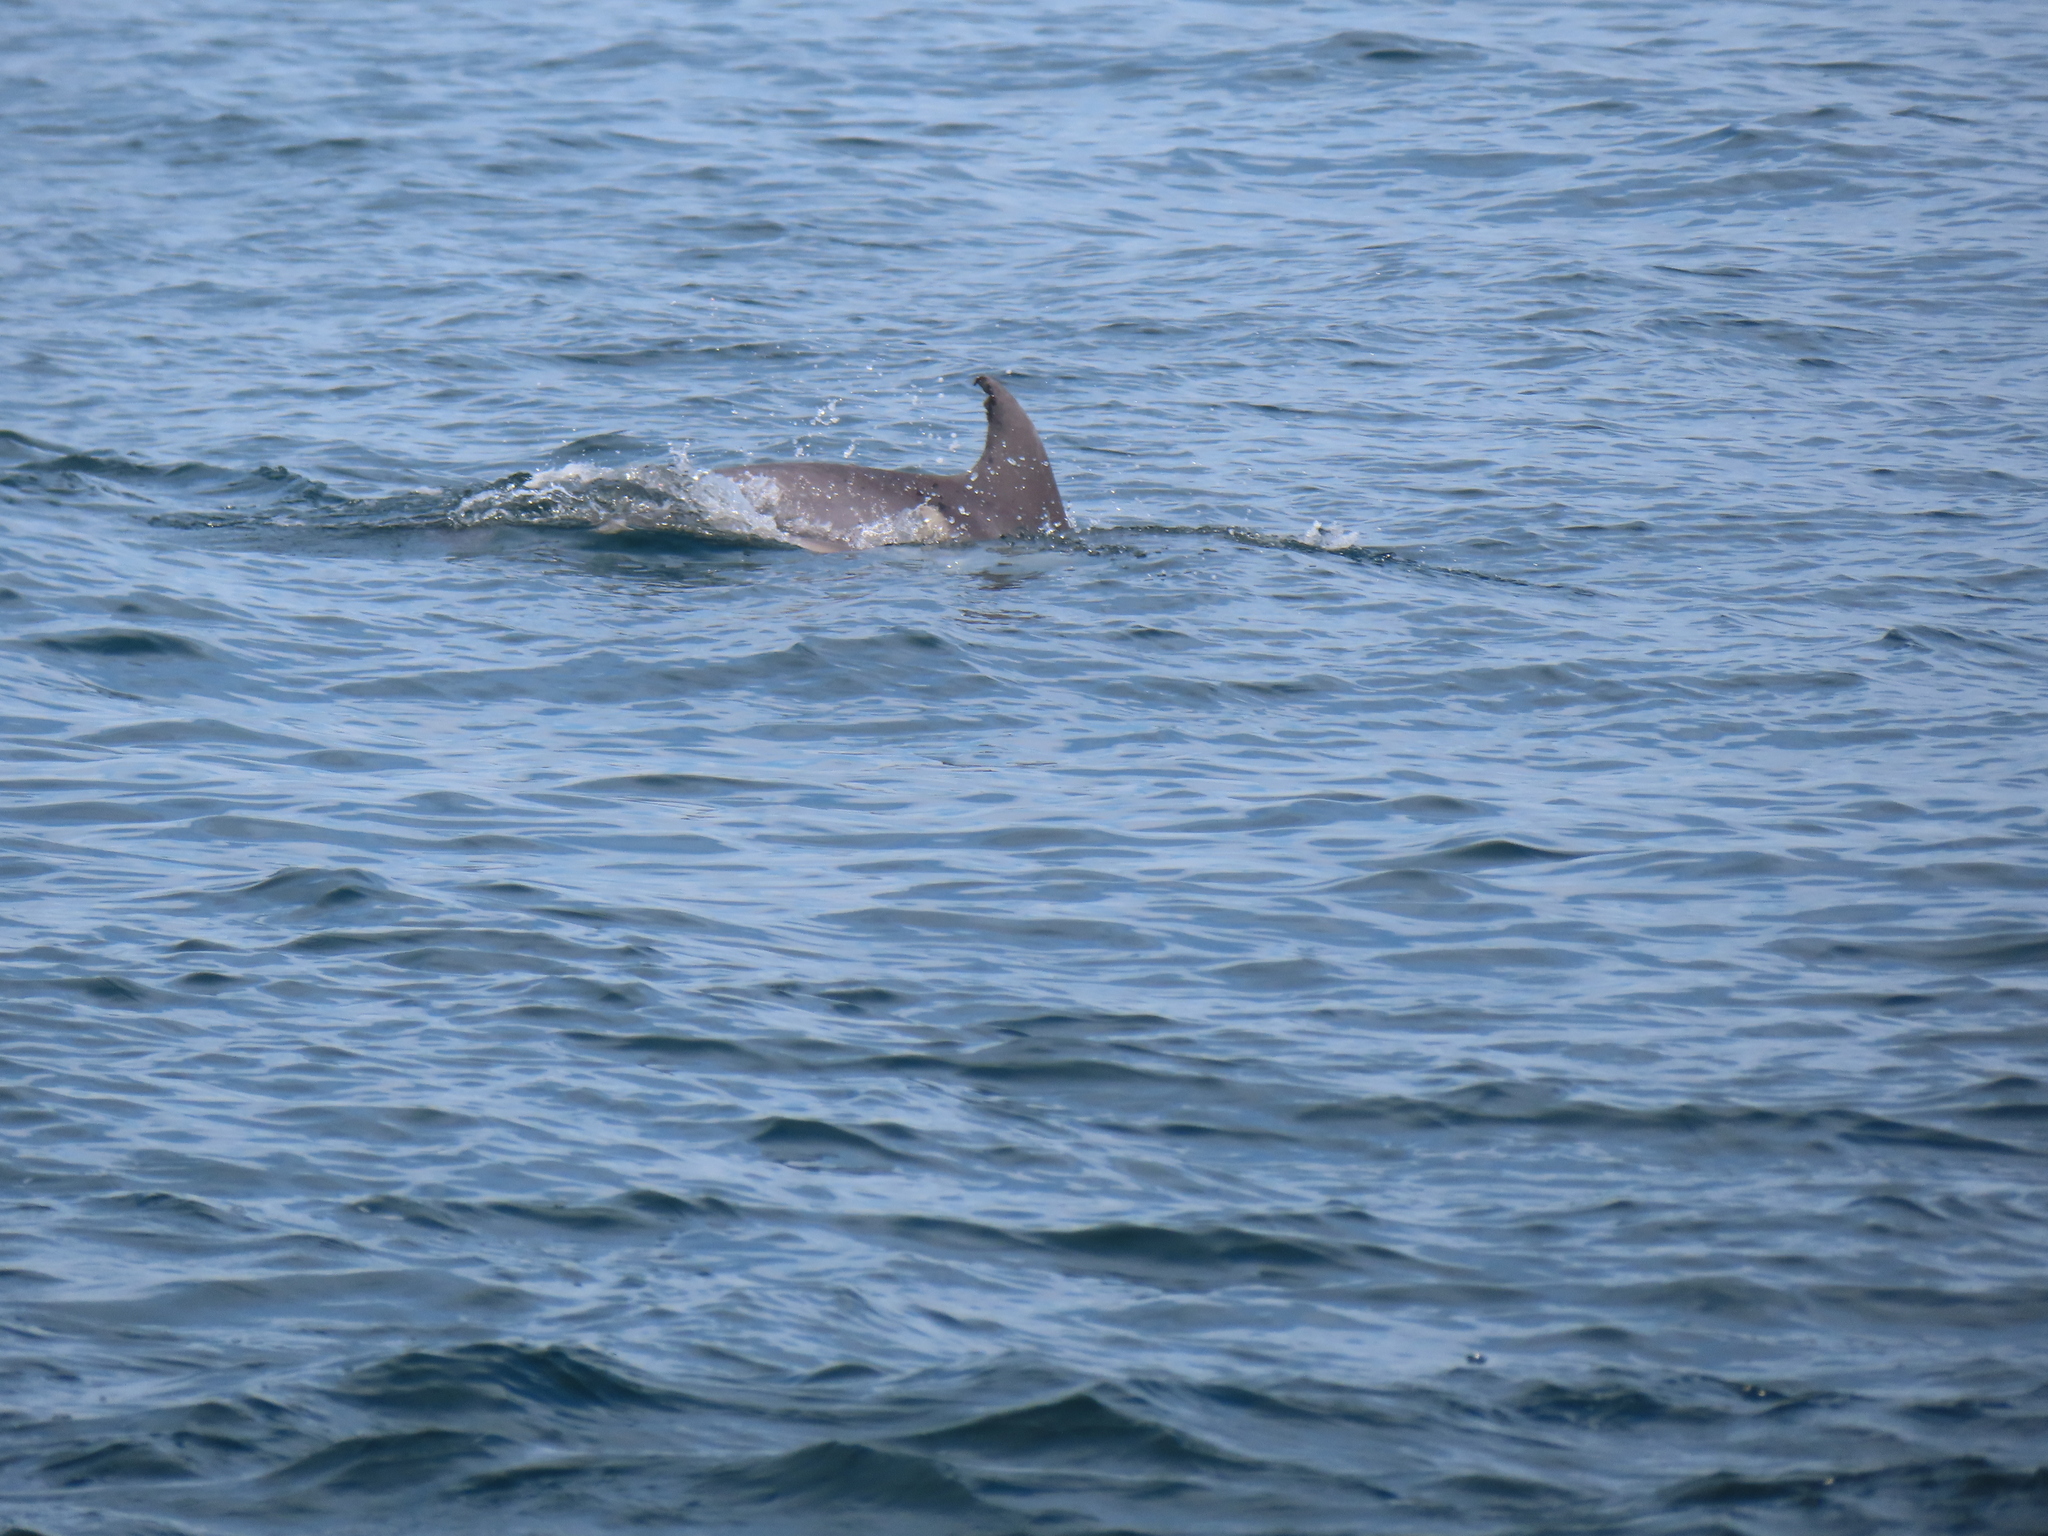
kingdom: Animalia
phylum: Chordata
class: Mammalia
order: Cetacea
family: Delphinidae
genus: Tursiops
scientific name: Tursiops truncatus
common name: Bottlenose dolphin
